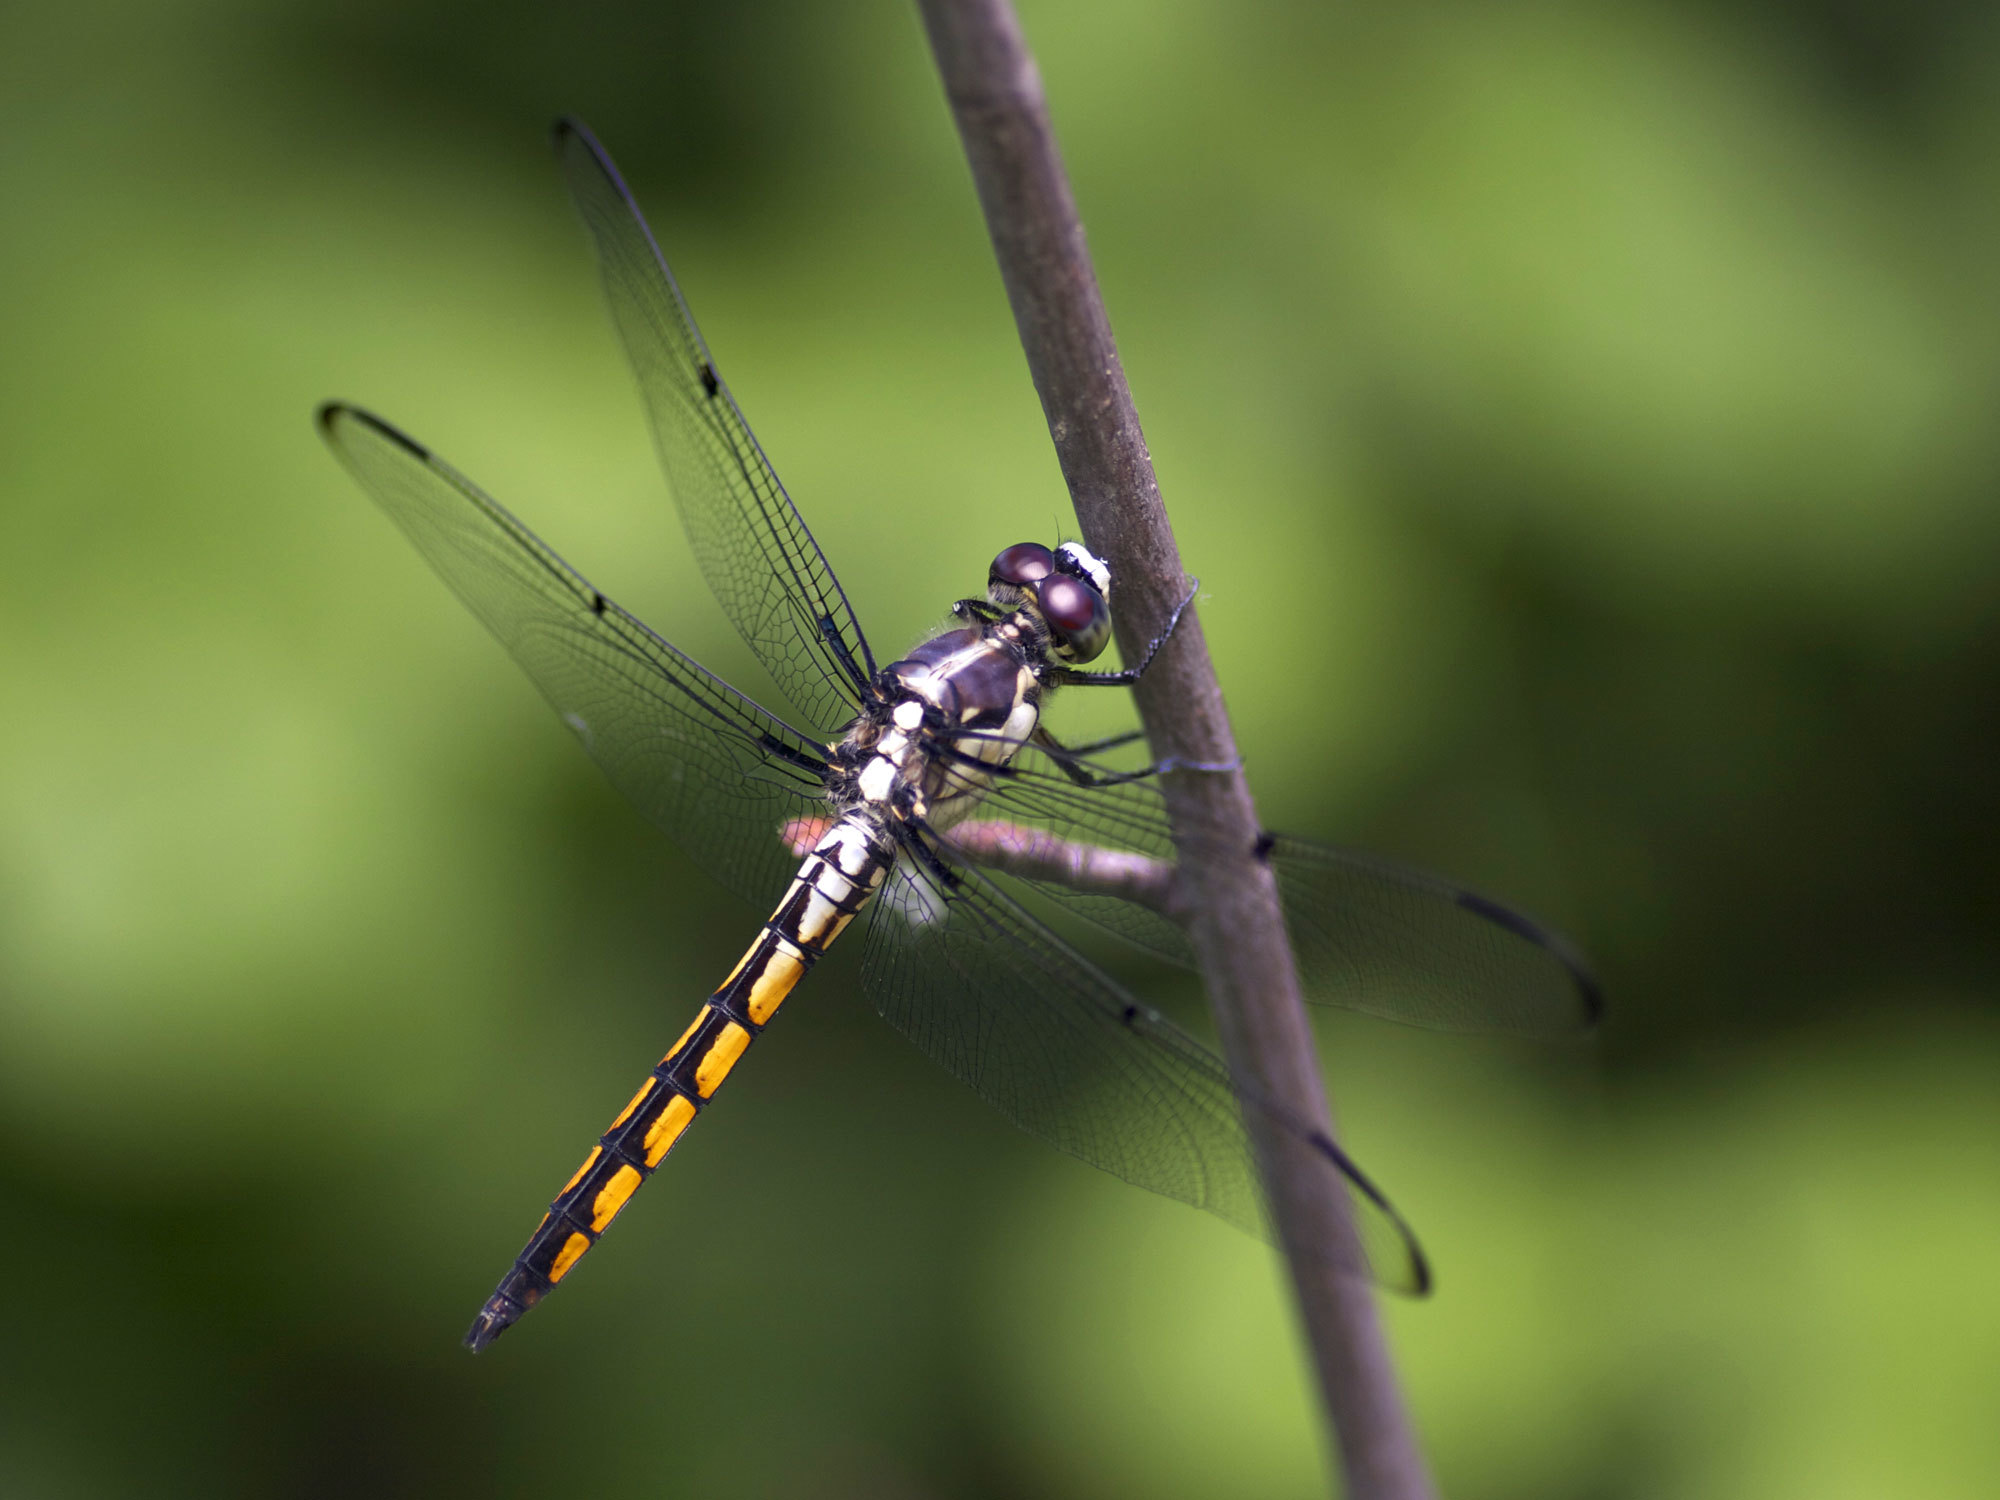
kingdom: Animalia
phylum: Arthropoda
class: Insecta
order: Odonata
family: Libellulidae
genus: Libellula
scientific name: Libellula vibrans
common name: Great blue skimmer
